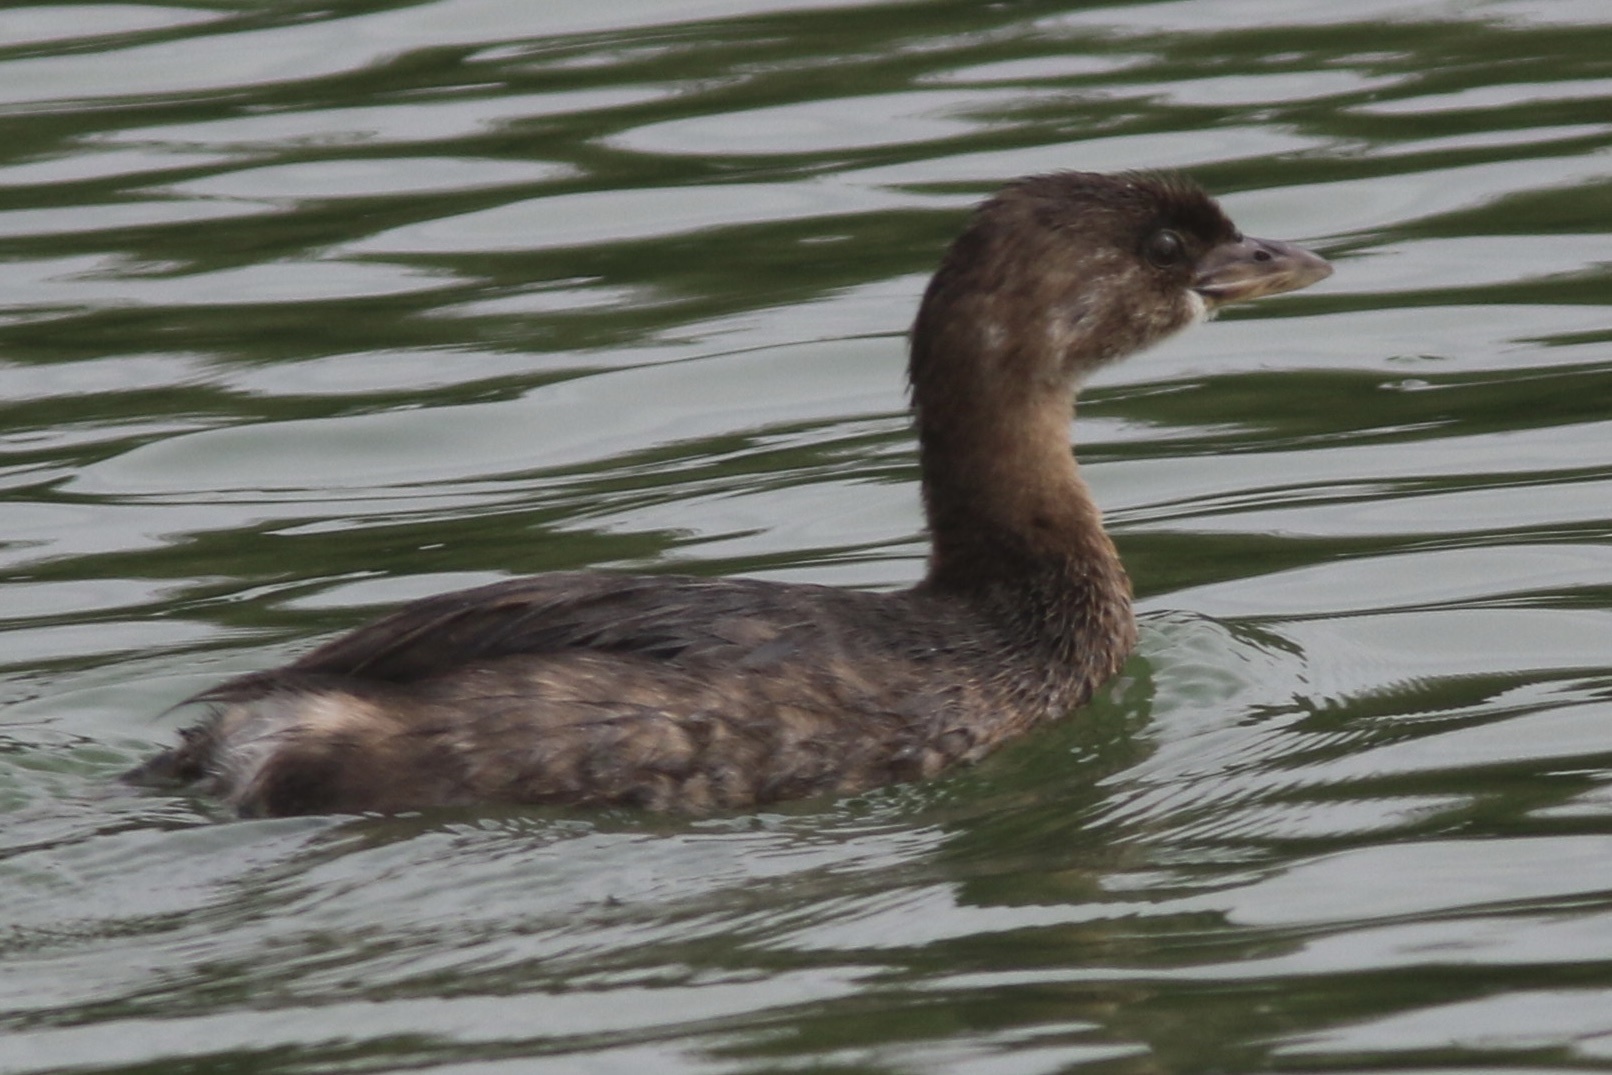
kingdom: Animalia
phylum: Chordata
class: Aves
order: Podicipediformes
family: Podicipedidae
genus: Podilymbus
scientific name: Podilymbus podiceps
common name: Pied-billed grebe
